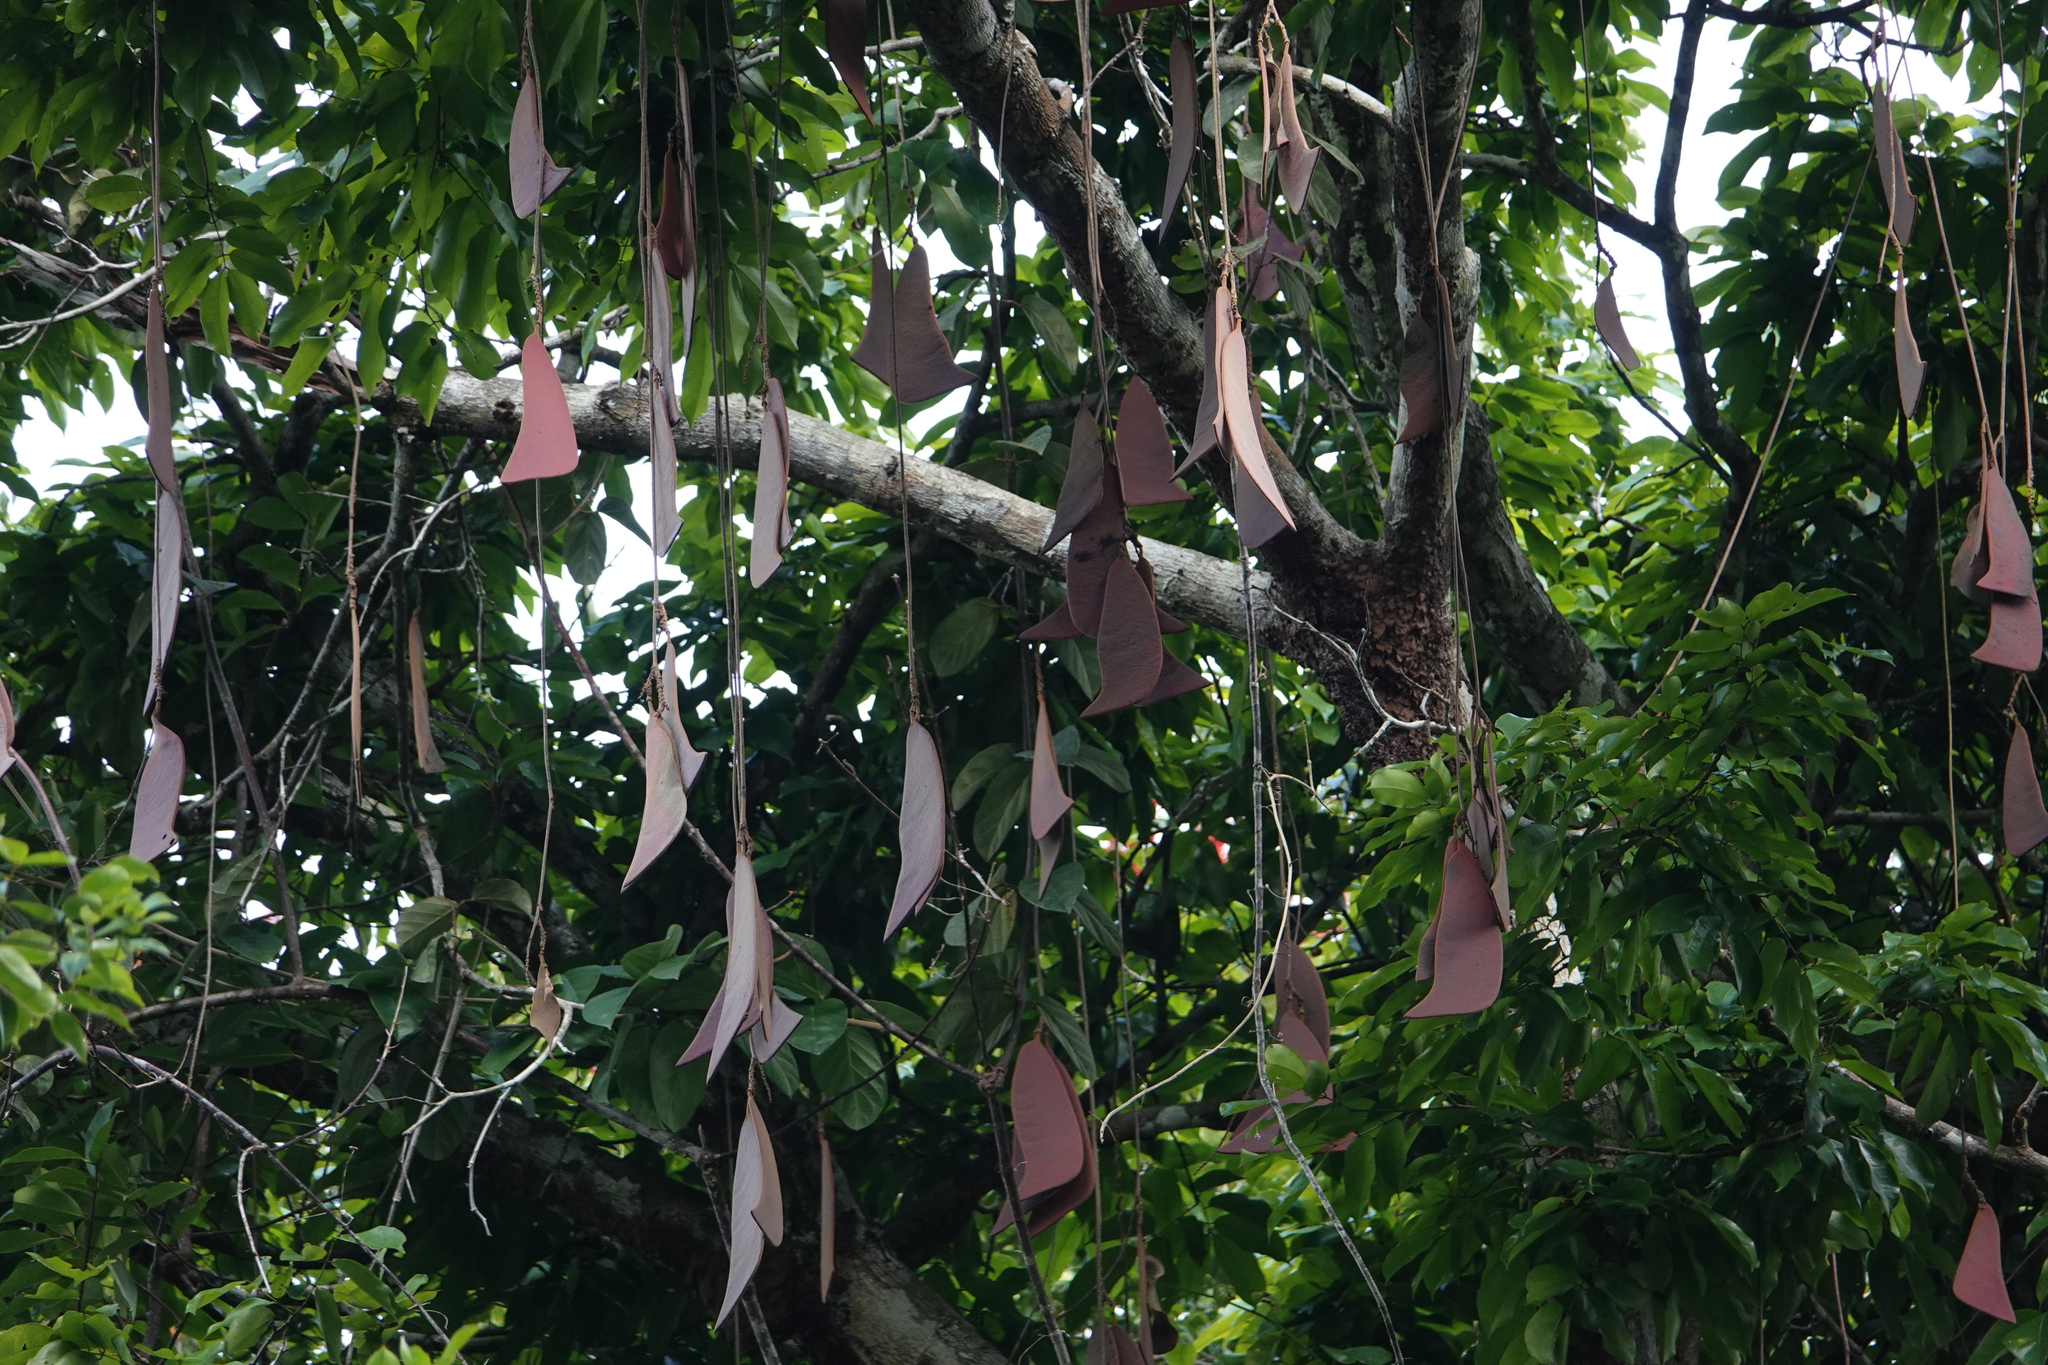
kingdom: Plantae
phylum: Tracheophyta
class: Magnoliopsida
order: Fabales
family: Fabaceae
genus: Eperua
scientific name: Eperua falcata
